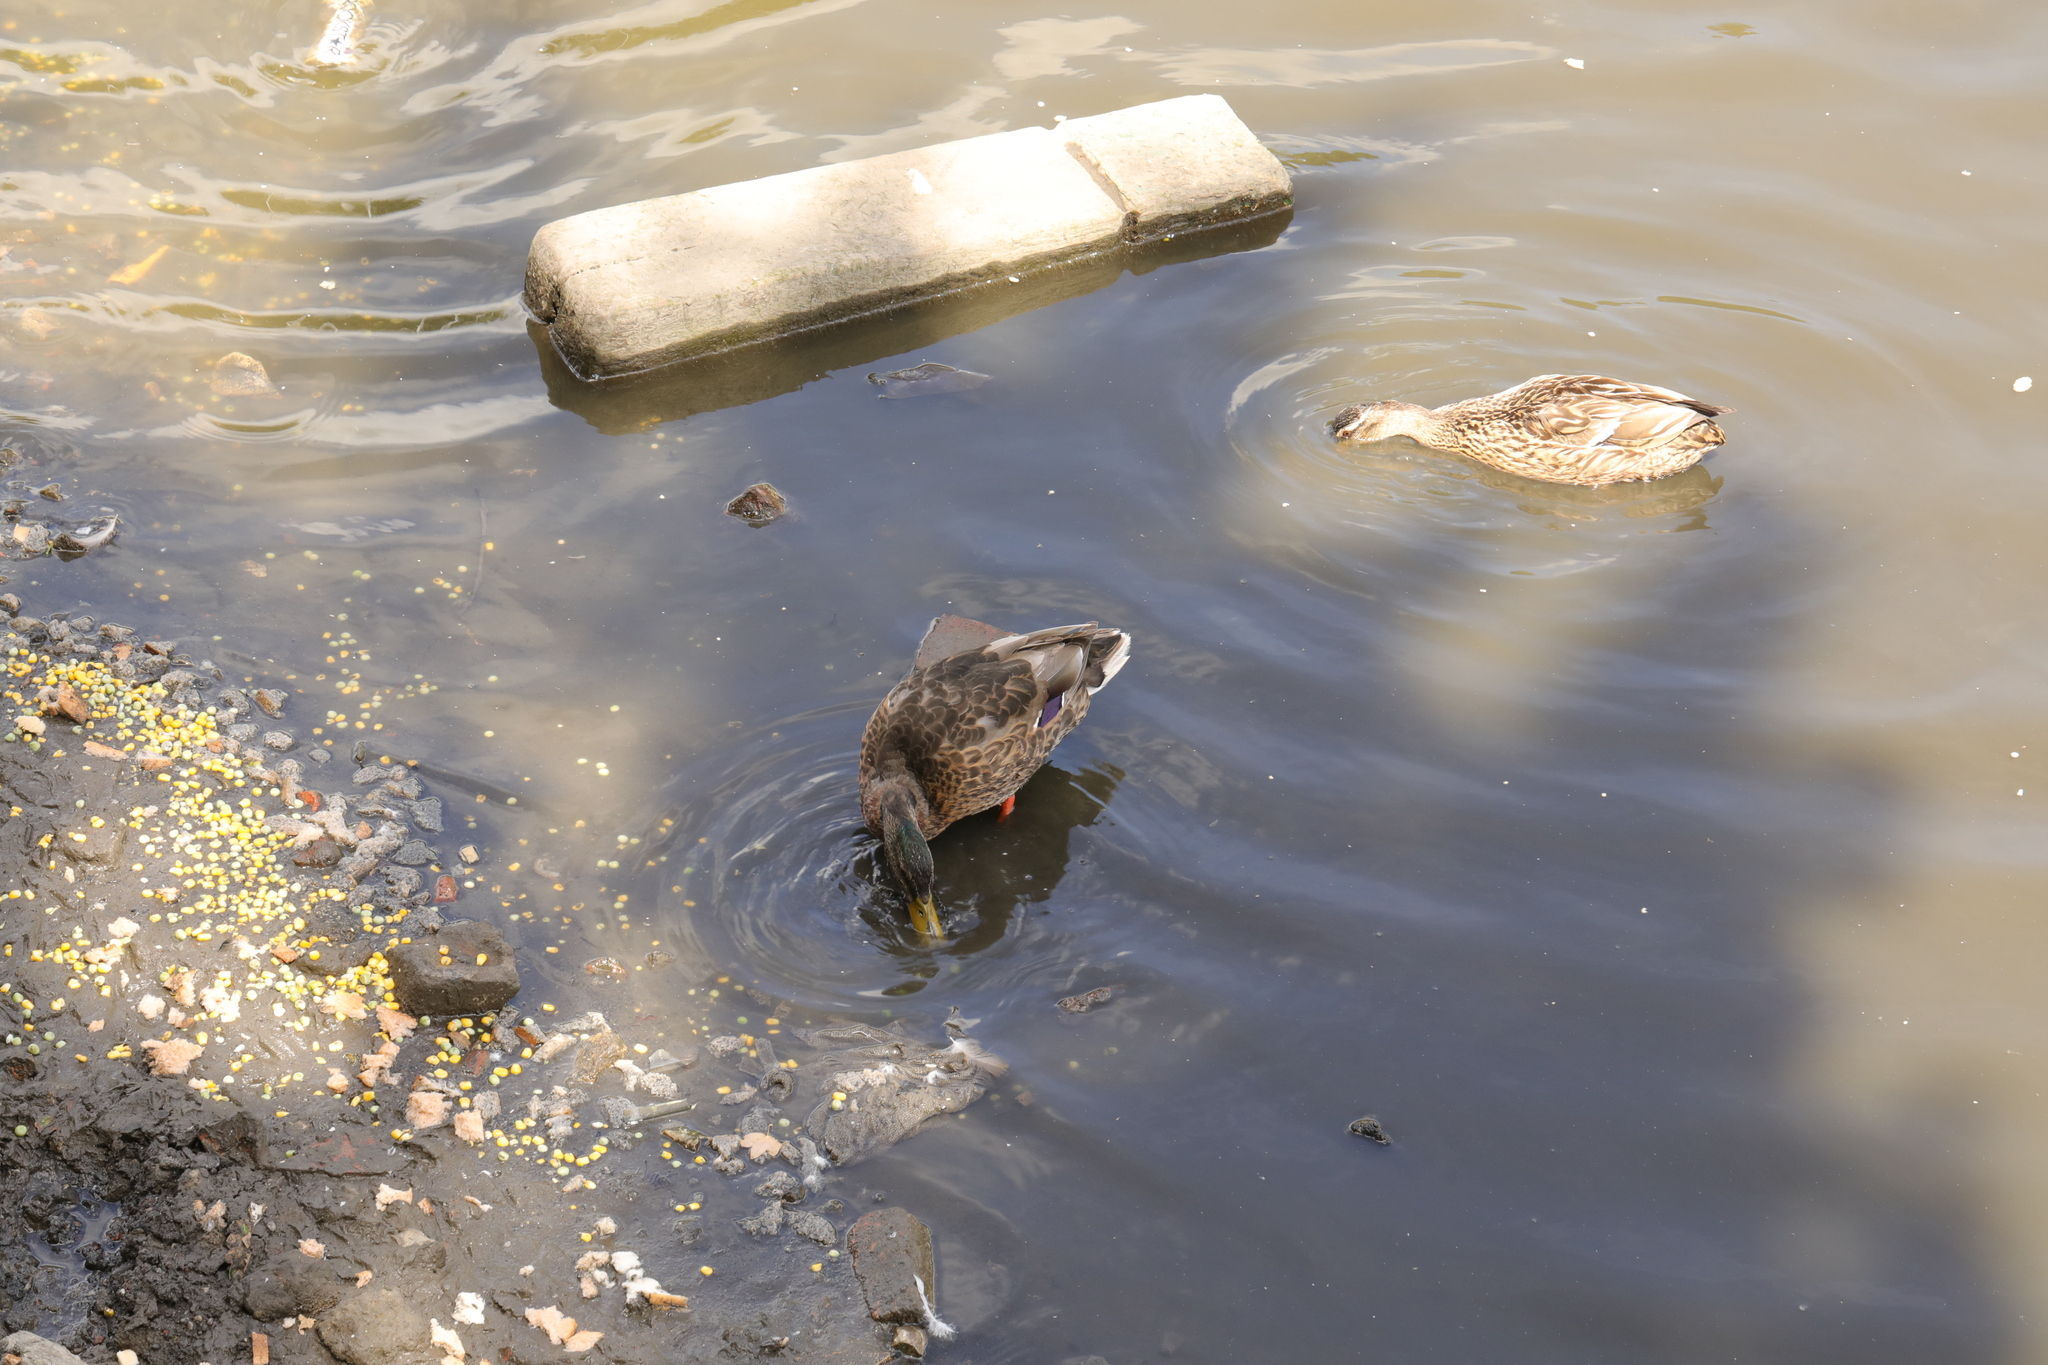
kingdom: Animalia
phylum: Chordata
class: Aves
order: Anseriformes
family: Anatidae
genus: Anas
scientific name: Anas platyrhynchos
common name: Mallard
